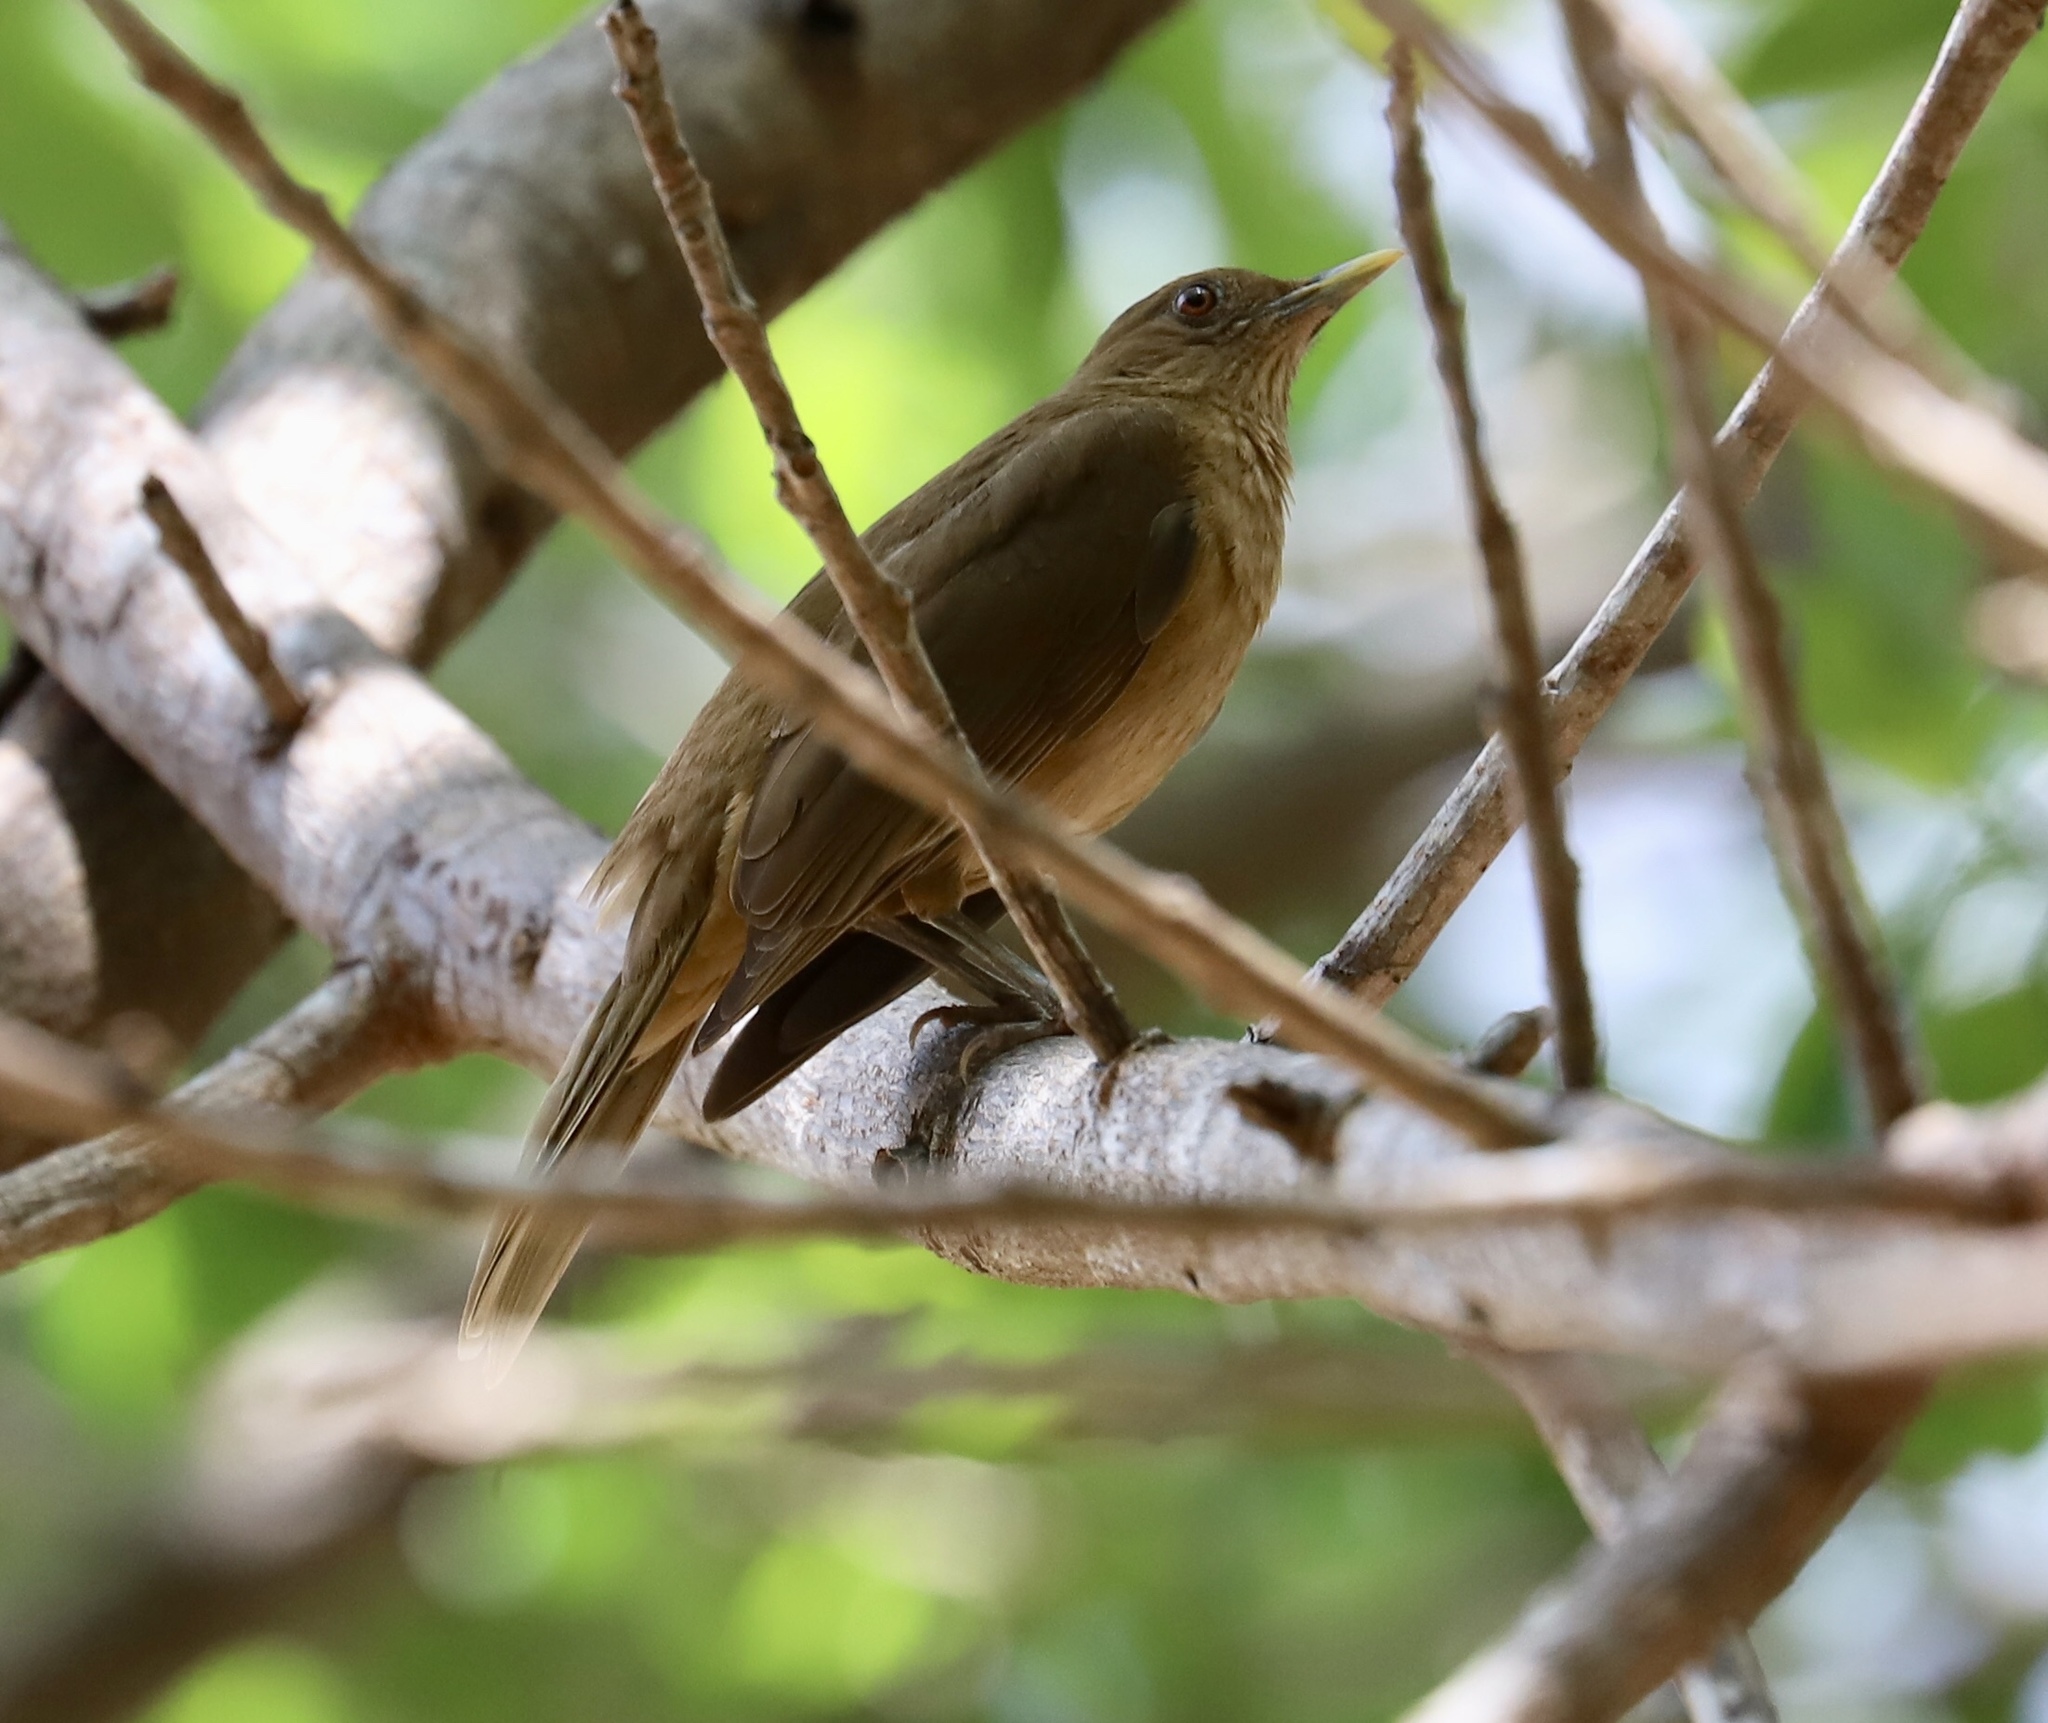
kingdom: Animalia
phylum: Chordata
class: Aves
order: Passeriformes
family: Turdidae
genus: Turdus
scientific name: Turdus grayi
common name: Clay-colored thrush
